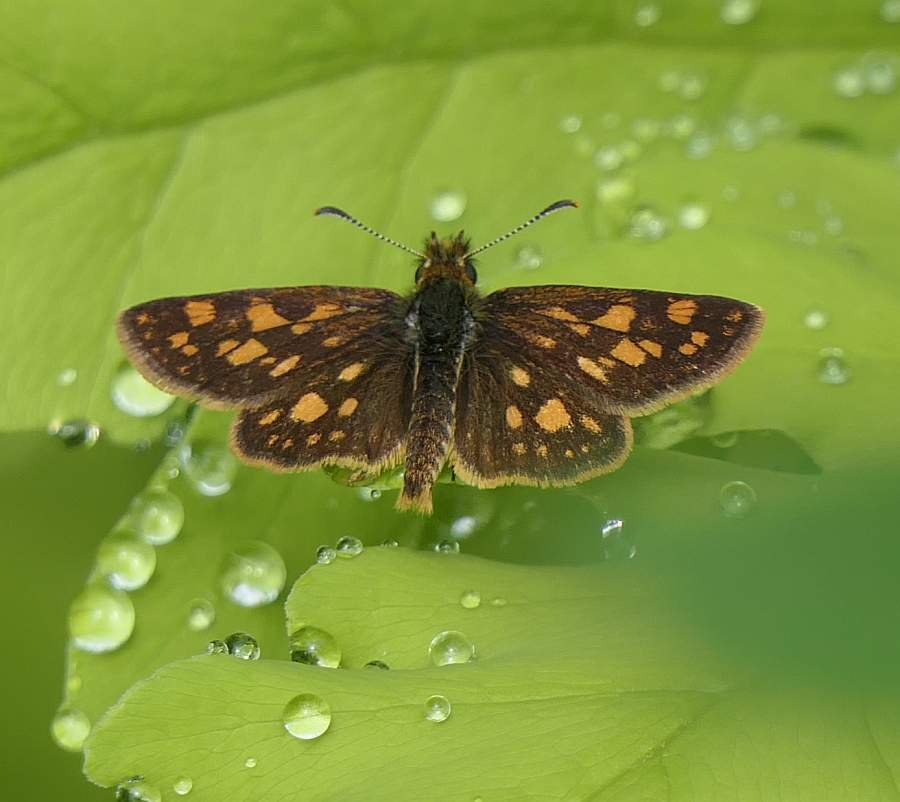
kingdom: Animalia
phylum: Arthropoda
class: Insecta
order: Lepidoptera
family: Hesperiidae
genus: Carterocephalus
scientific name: Carterocephalus mandan
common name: Arctic skipperling
